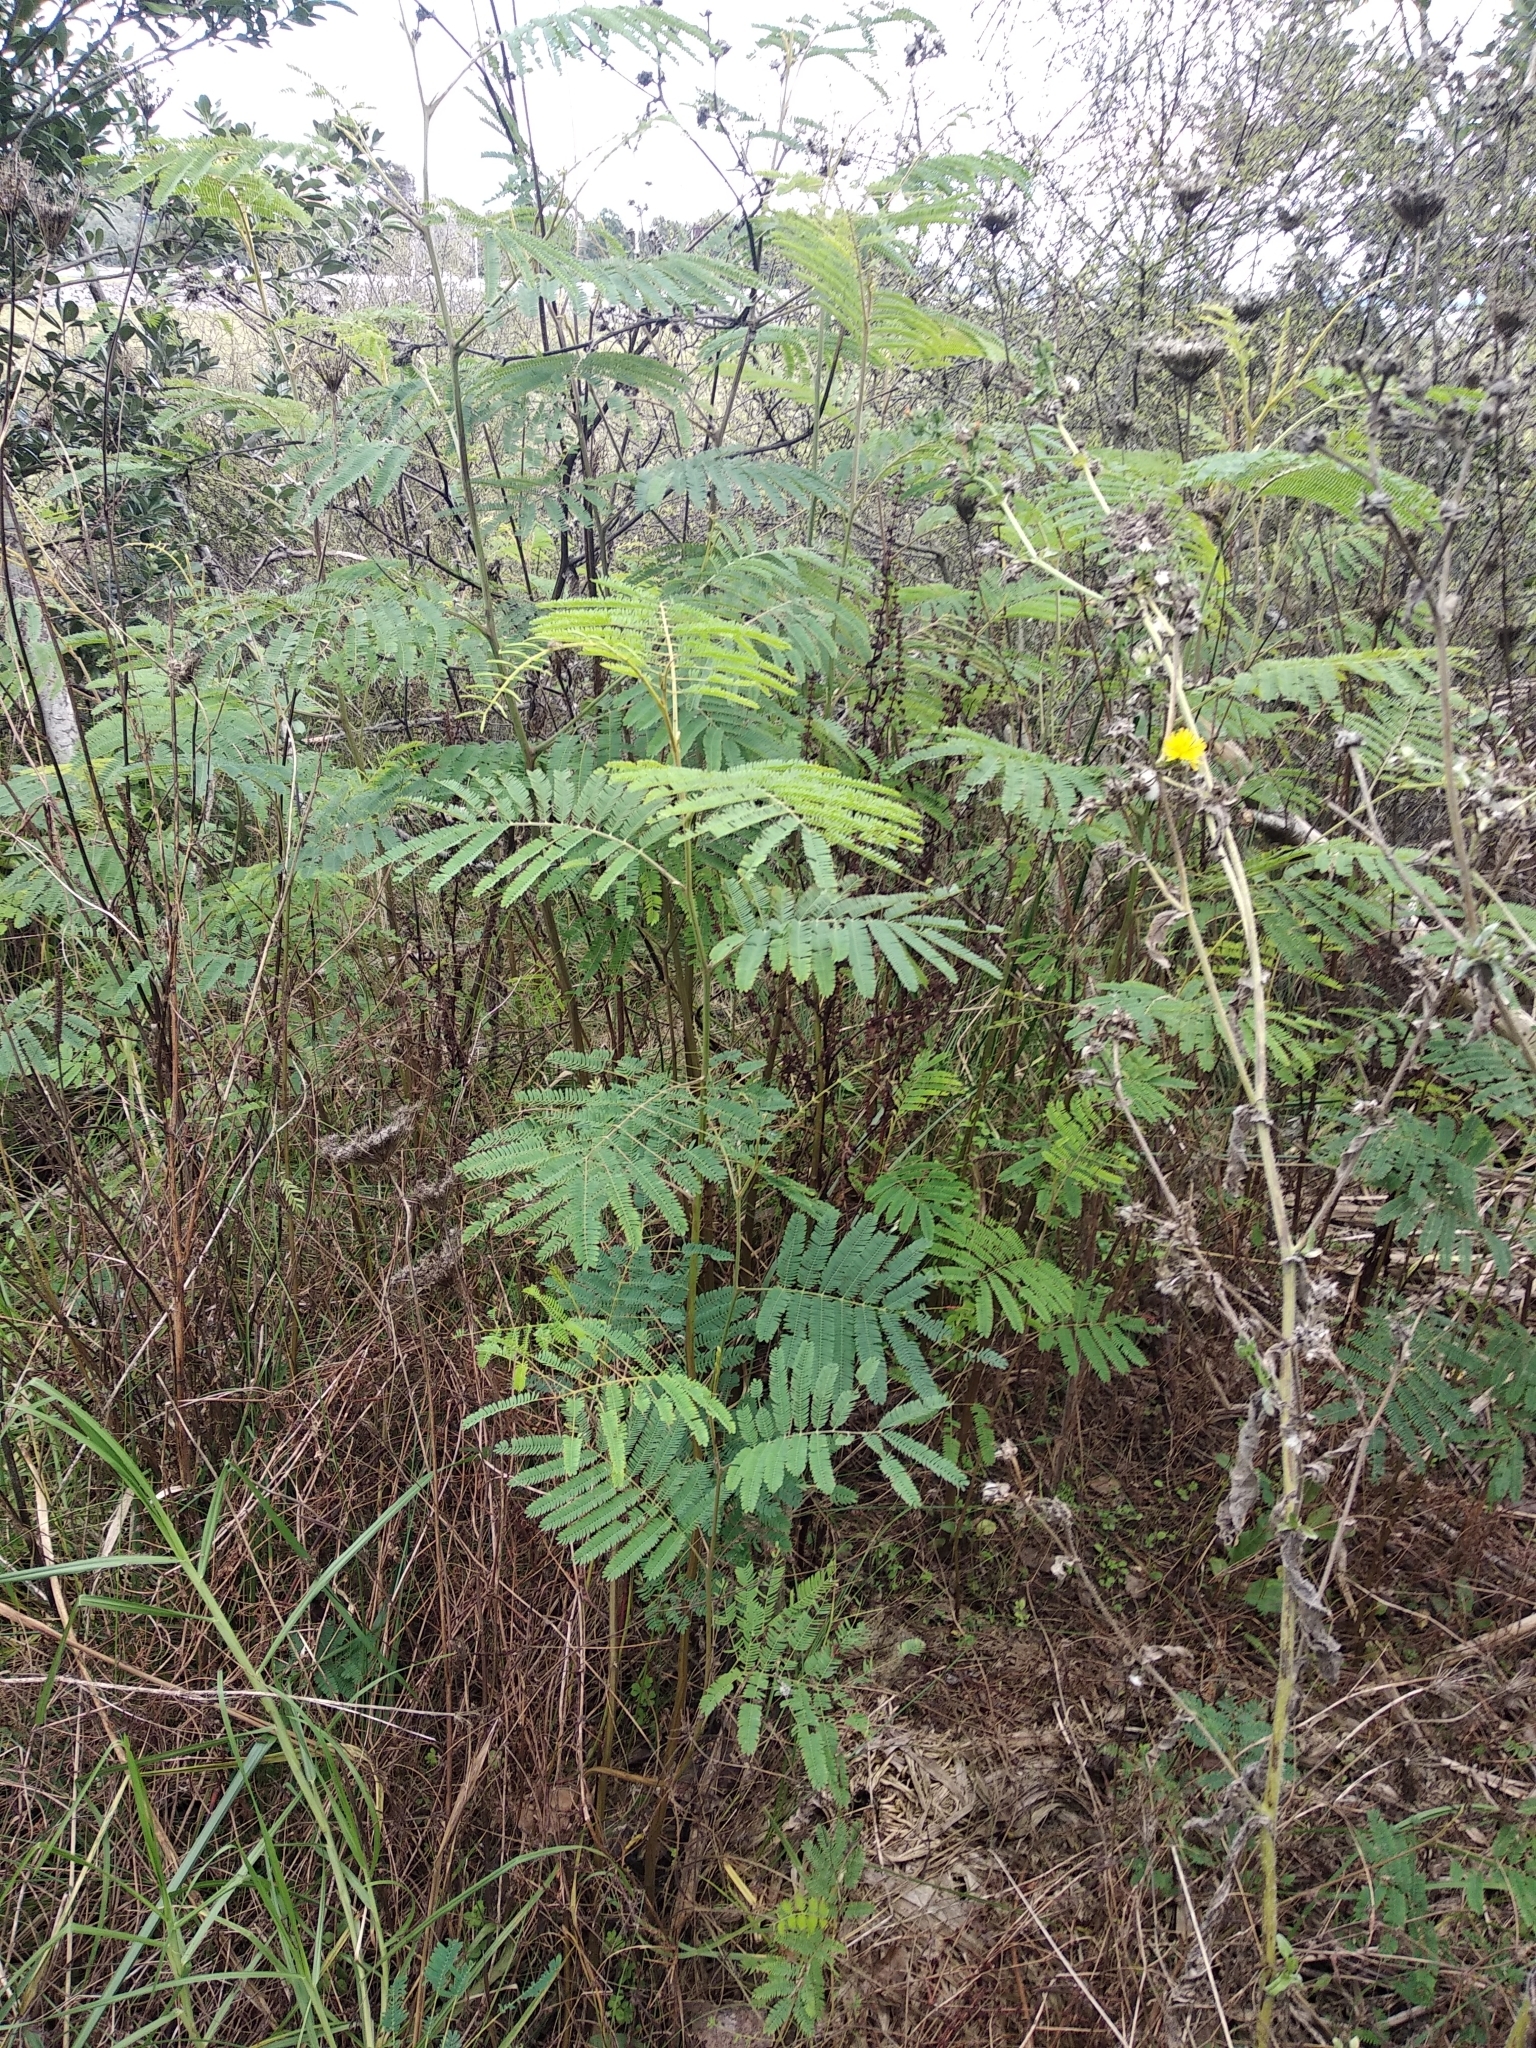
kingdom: Plantae
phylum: Tracheophyta
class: Magnoliopsida
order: Fabales
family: Fabaceae
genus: Paraserianthes
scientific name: Paraserianthes lophantha
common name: Plume albizia
